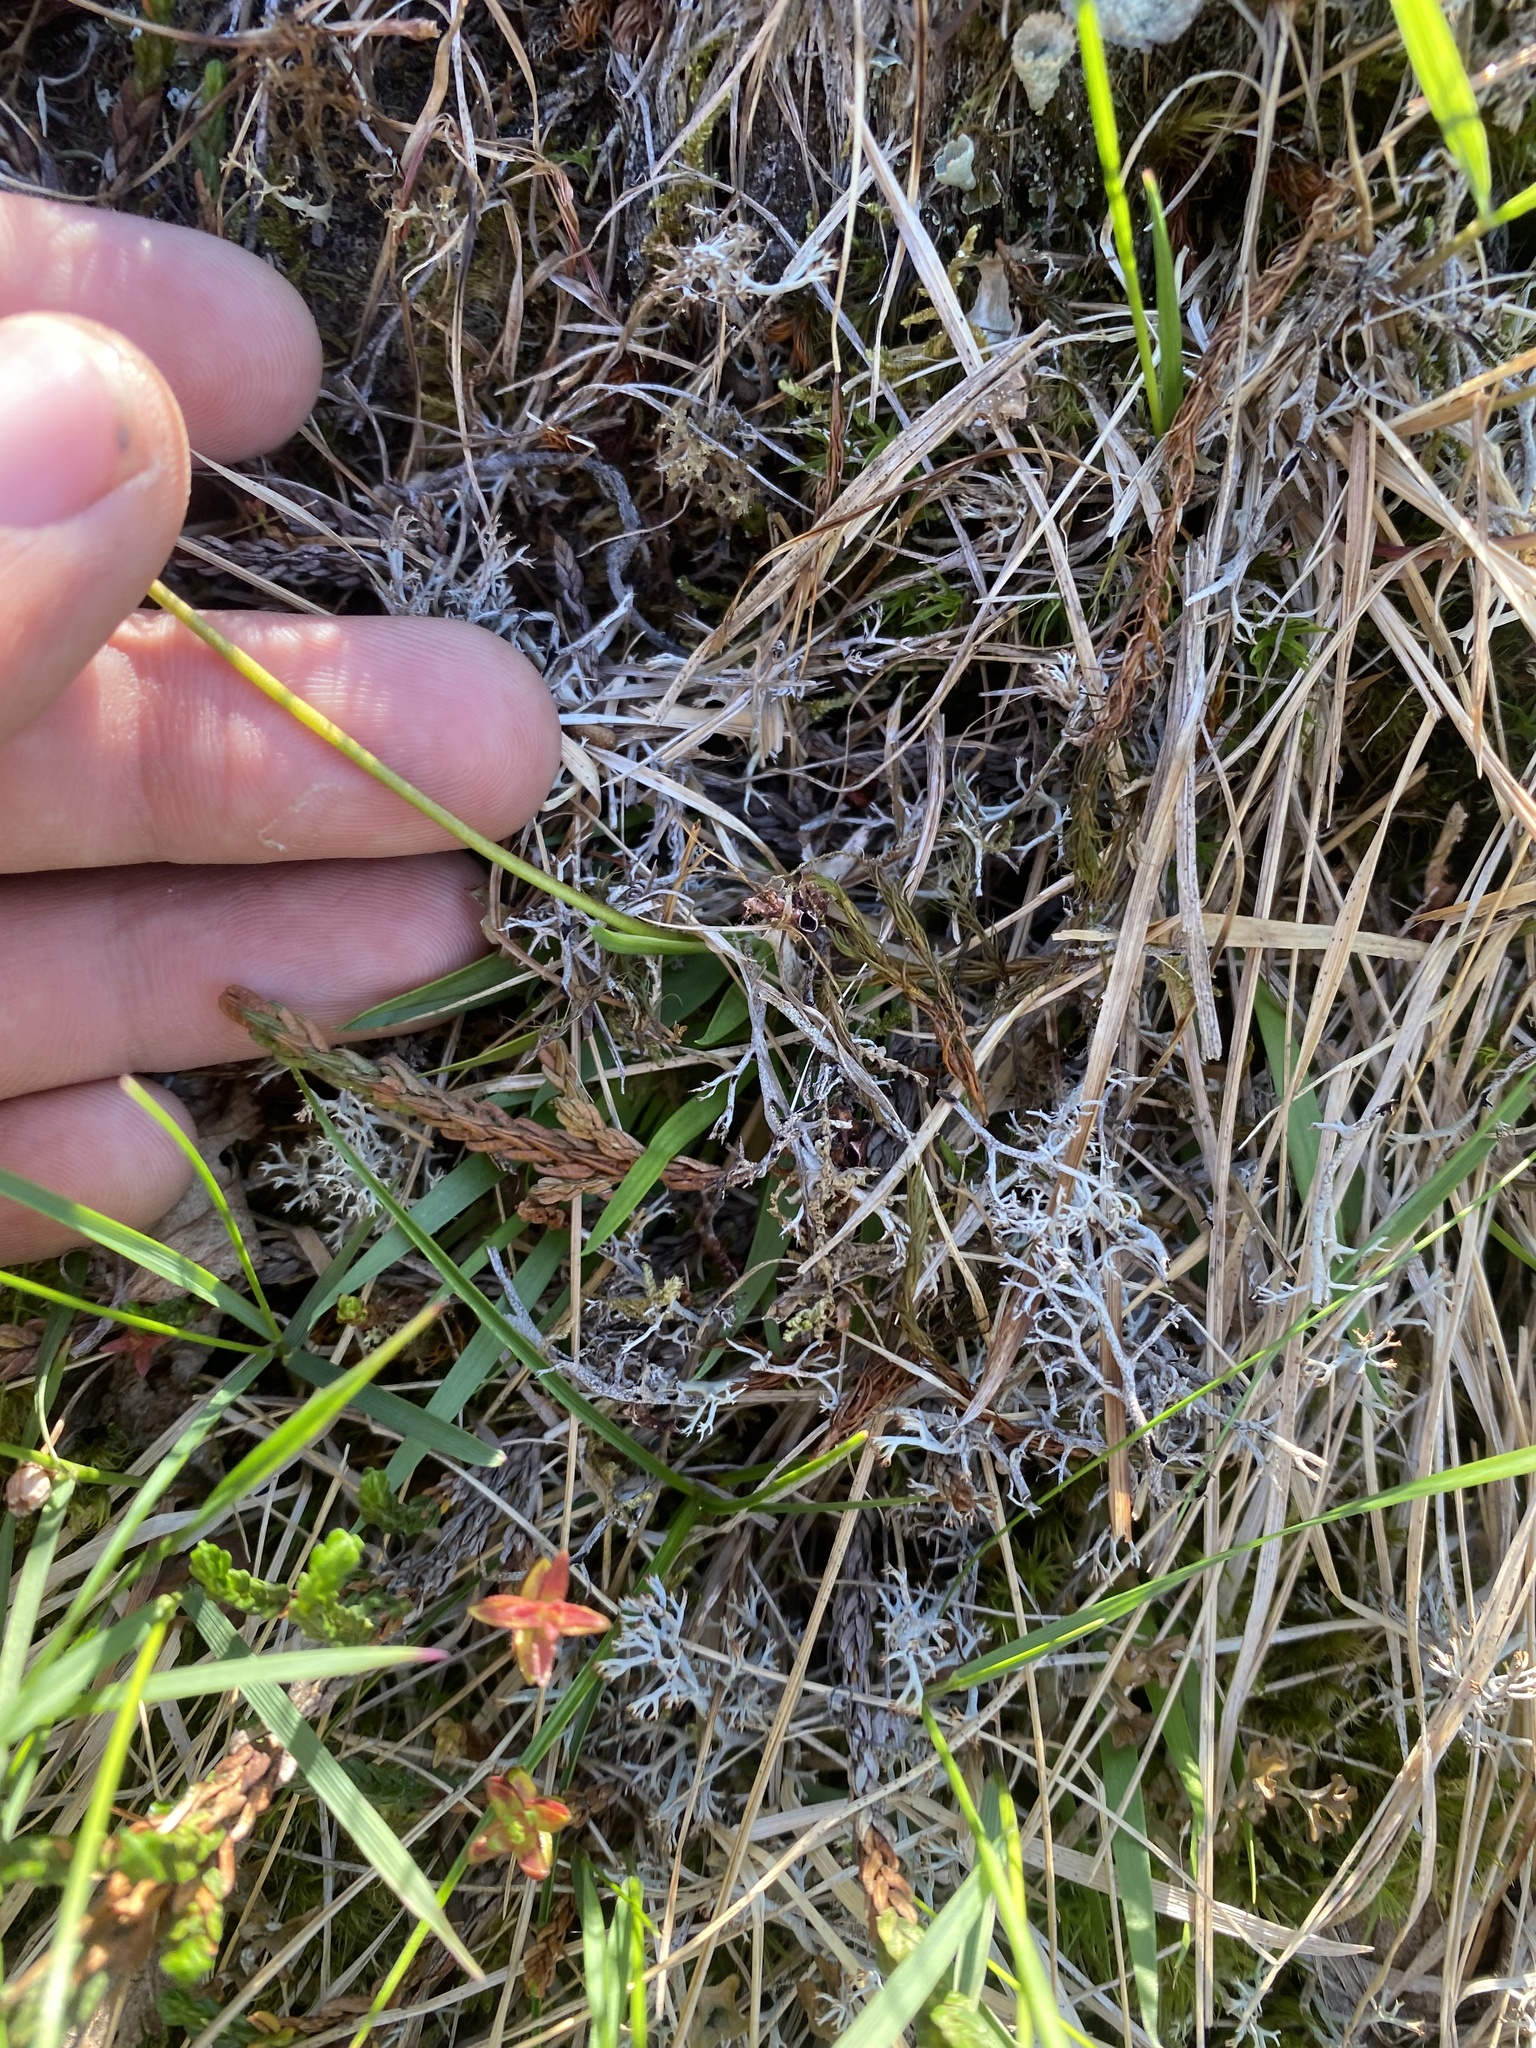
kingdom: Plantae
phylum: Tracheophyta
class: Liliopsida
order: Alismatales
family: Tofieldiaceae
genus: Tofieldia
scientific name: Tofieldia coccinea
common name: Northern false asphodel
